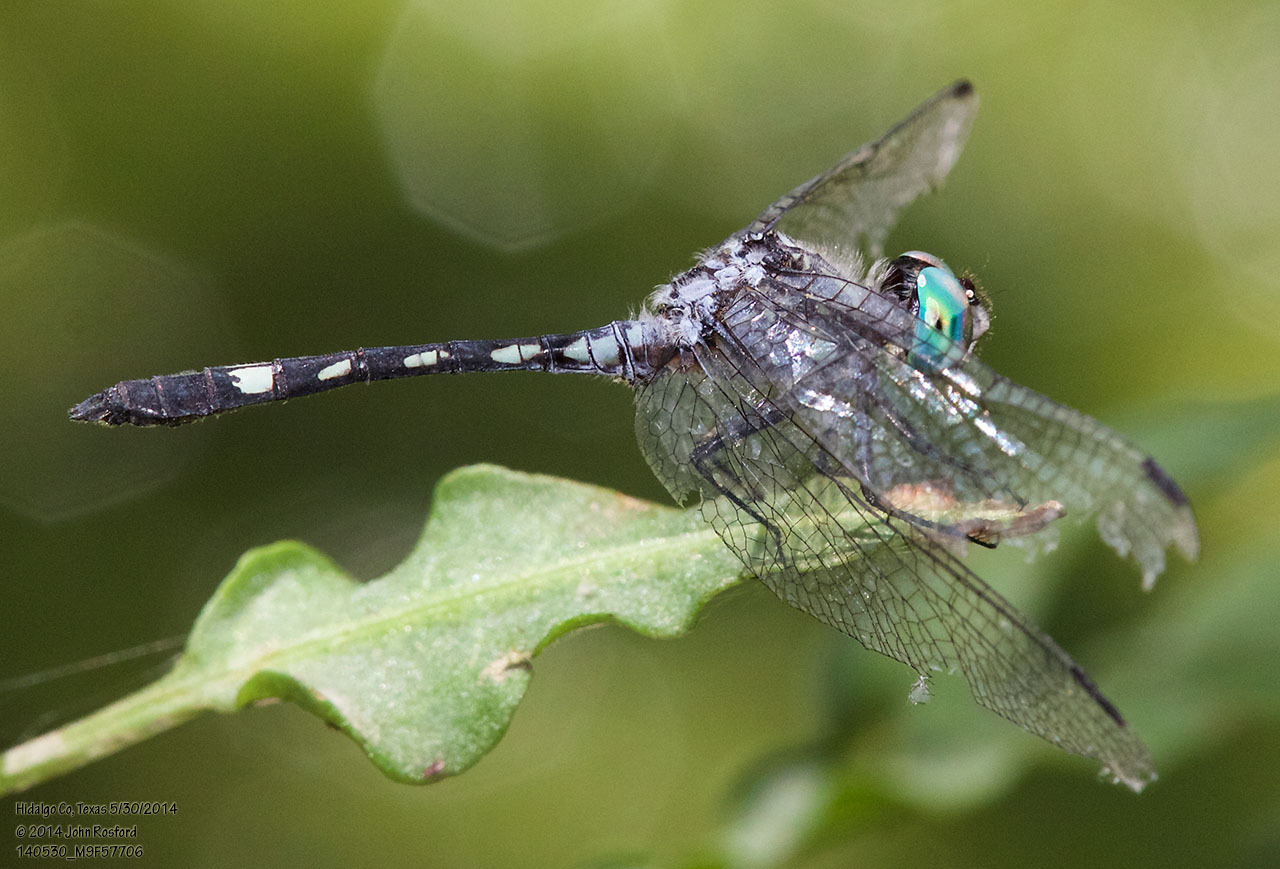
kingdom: Animalia
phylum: Arthropoda
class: Insecta
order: Odonata
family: Libellulidae
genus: Micrathyria
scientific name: Micrathyria hagenii
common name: Thornbush dasher
